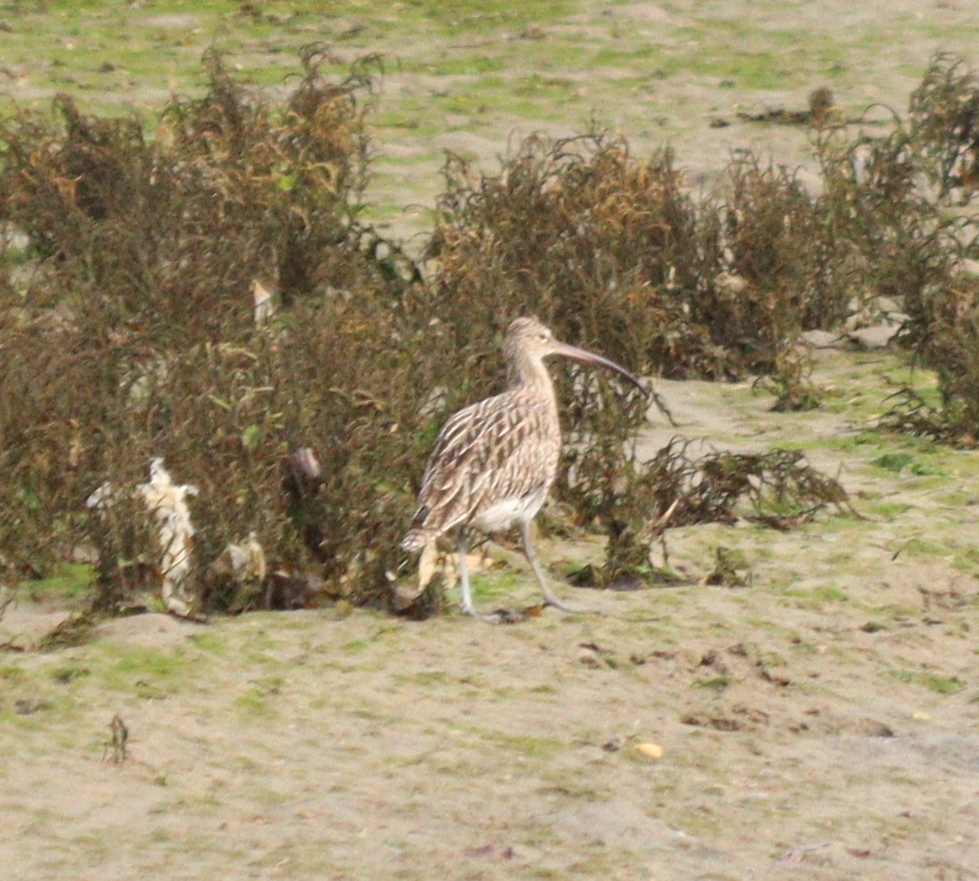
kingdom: Animalia
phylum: Chordata
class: Aves
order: Charadriiformes
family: Scolopacidae
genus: Numenius
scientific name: Numenius arquata
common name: Eurasian curlew
